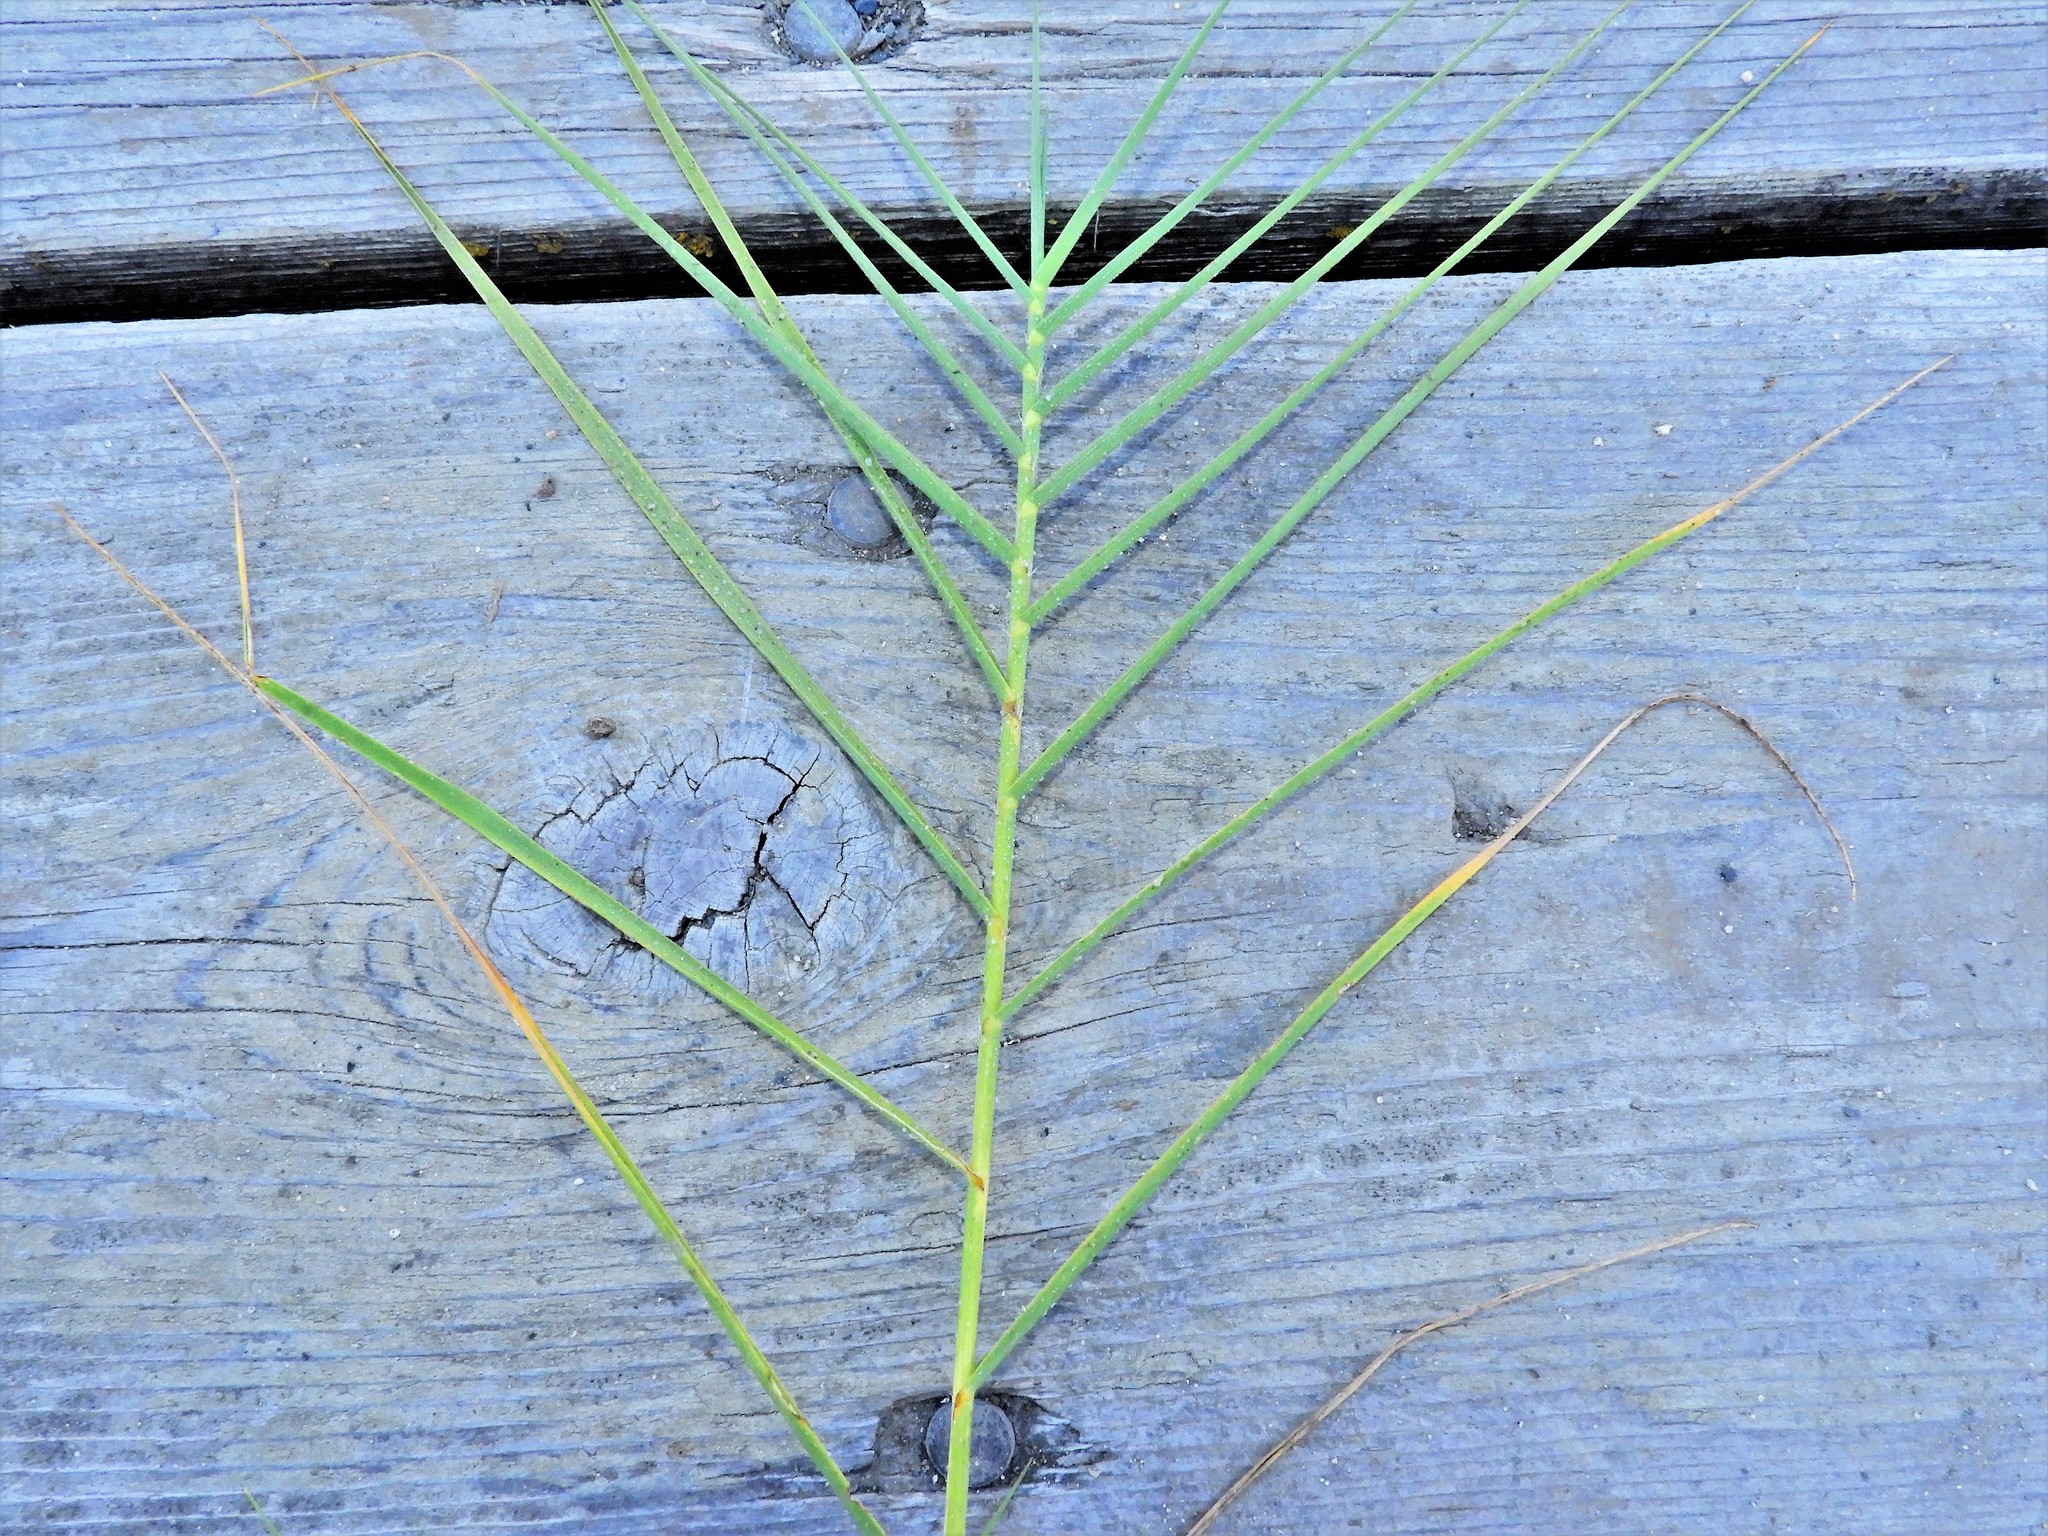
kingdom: Plantae
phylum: Tracheophyta
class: Liliopsida
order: Poales
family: Poaceae
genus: Distichlis
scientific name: Distichlis spicata
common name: Saltgrass
